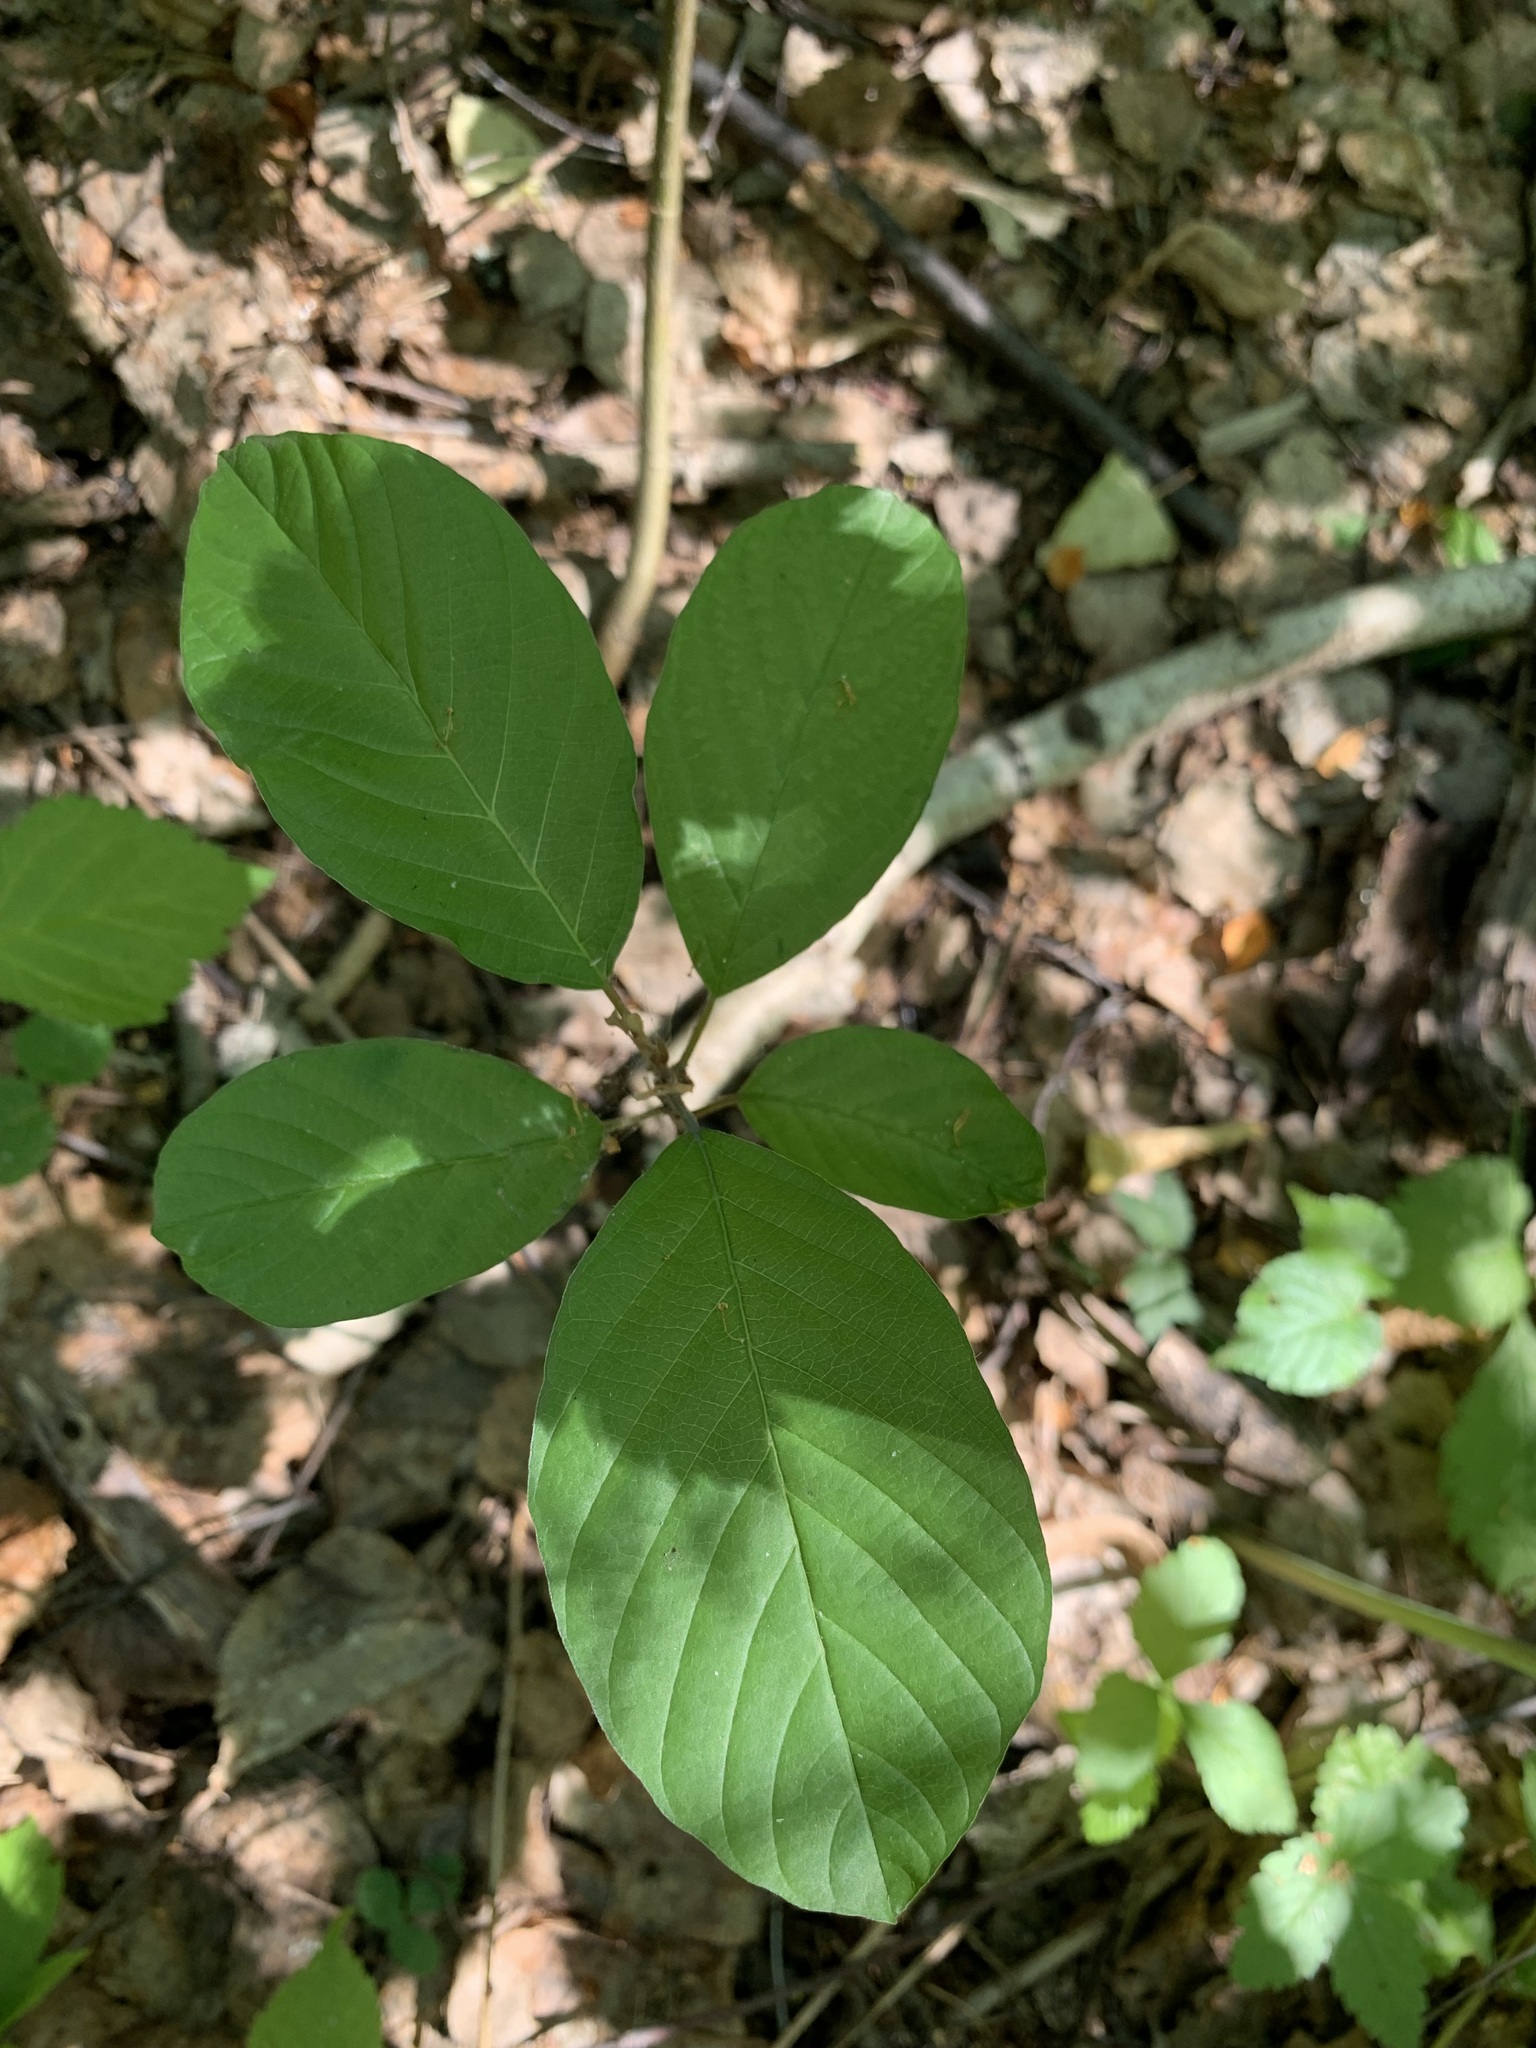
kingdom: Plantae
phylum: Tracheophyta
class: Magnoliopsida
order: Rosales
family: Rhamnaceae
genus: Frangula
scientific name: Frangula alnus
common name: Alder buckthorn
